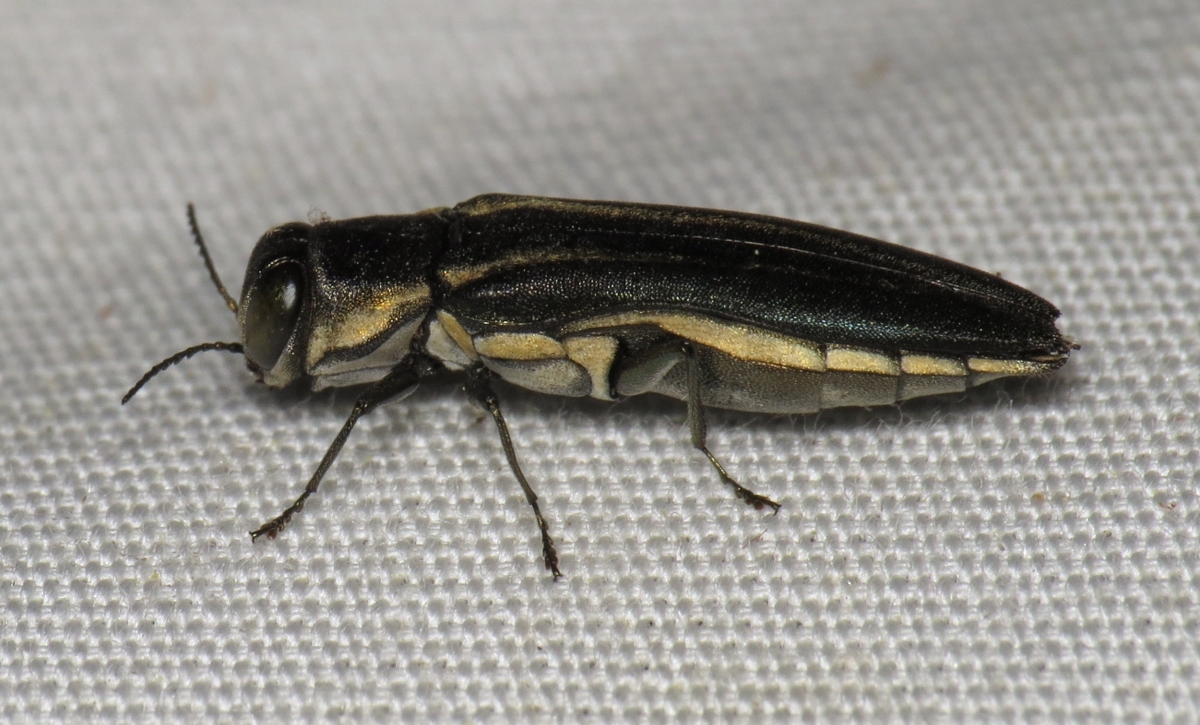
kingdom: Animalia
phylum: Arthropoda
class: Insecta
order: Coleoptera
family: Buprestidae
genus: Agrilus
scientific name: Agrilus bilineatus
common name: Two-lined chestnut borer
